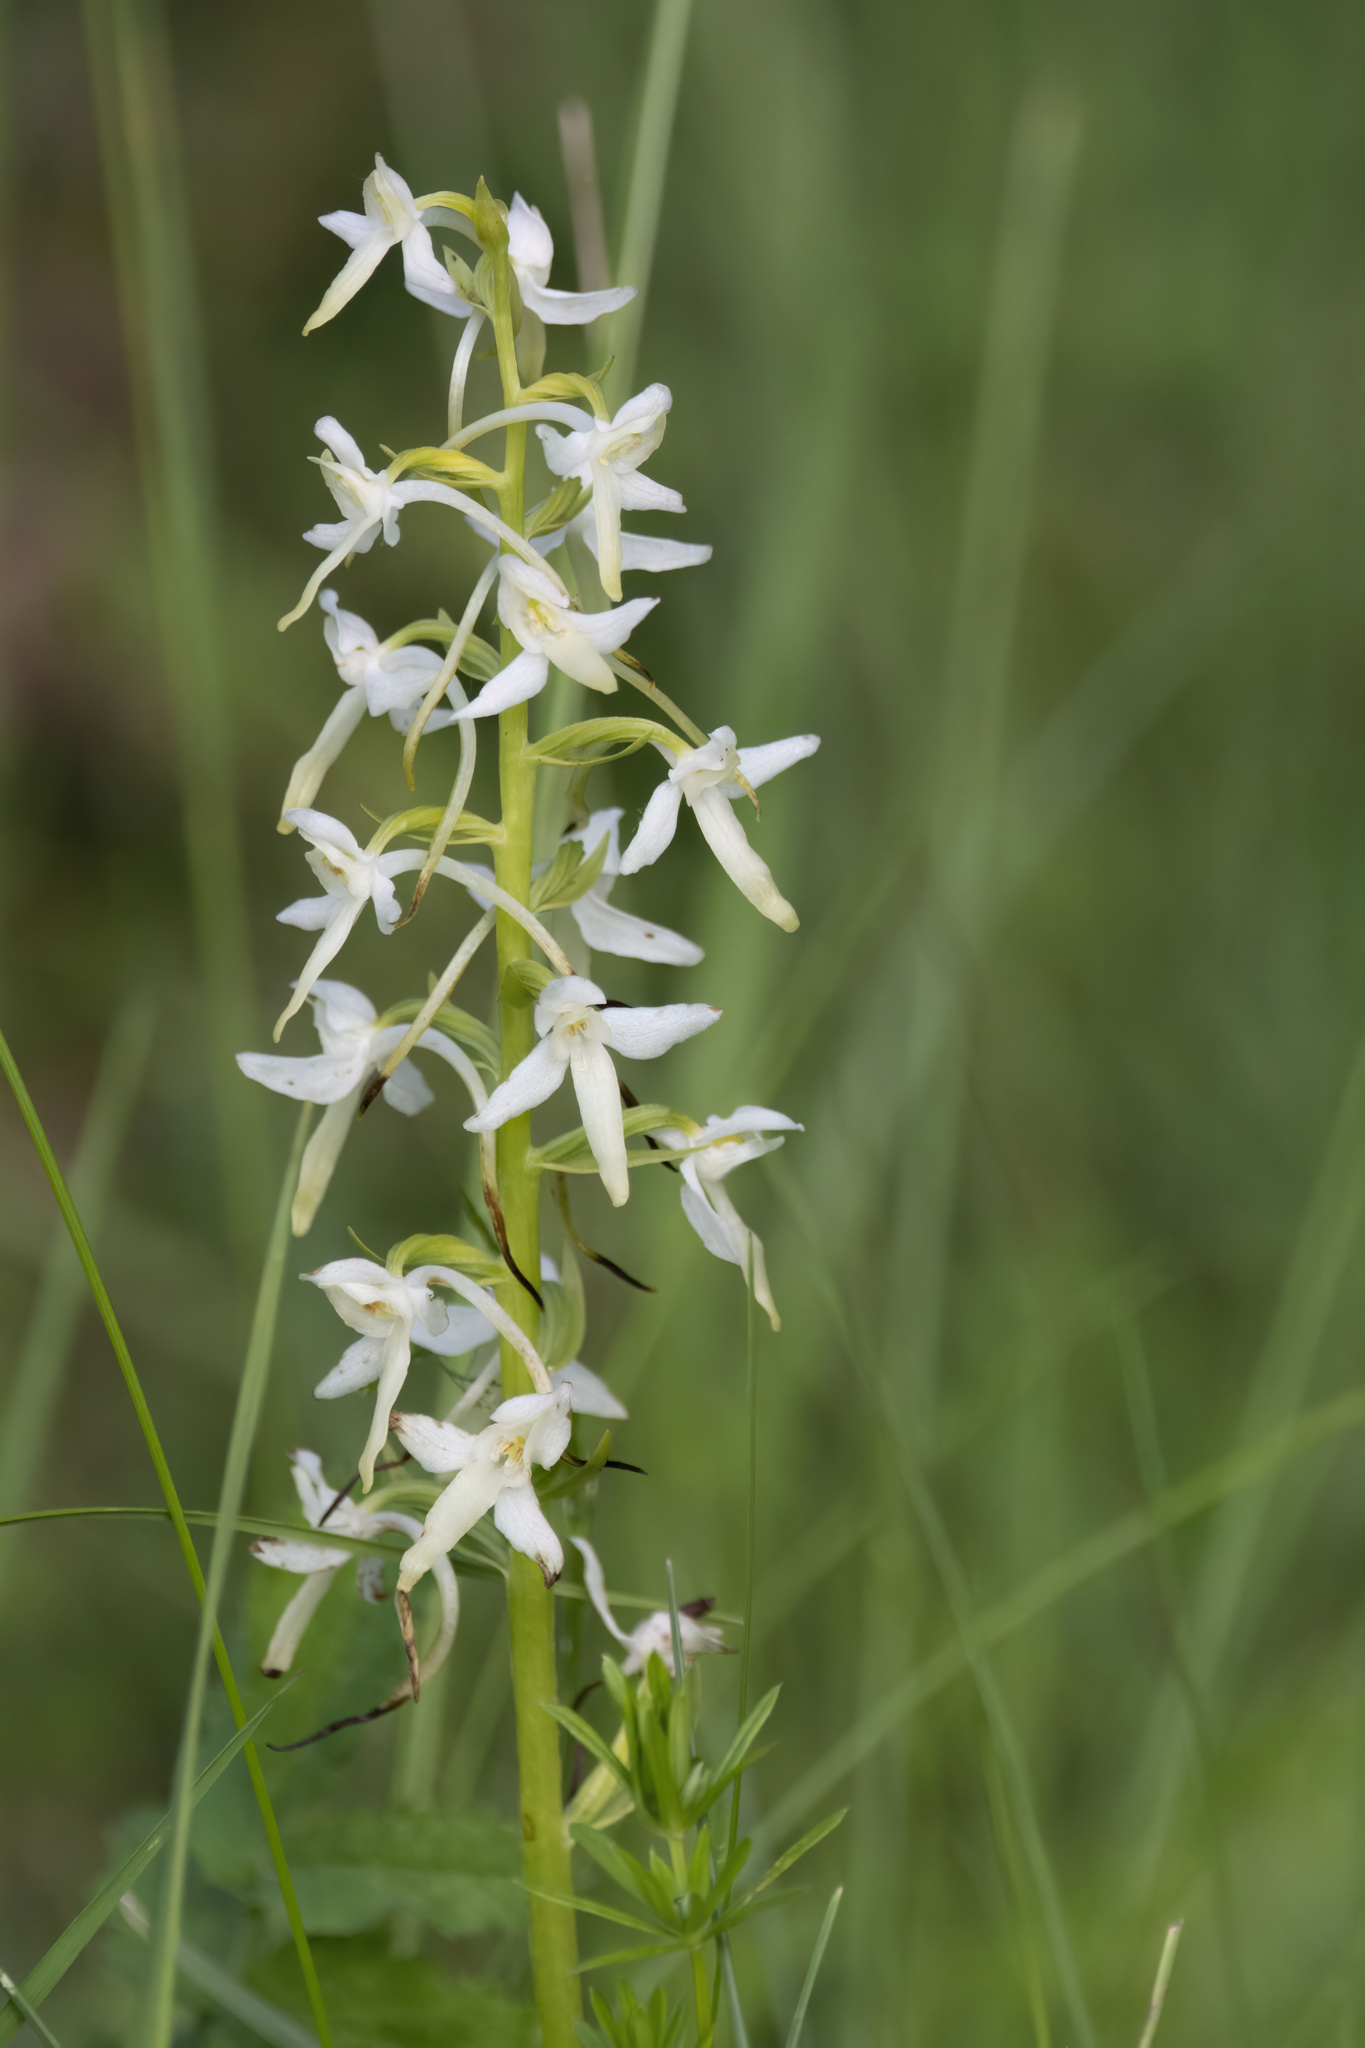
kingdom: Plantae
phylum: Tracheophyta
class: Liliopsida
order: Asparagales
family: Orchidaceae
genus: Platanthera
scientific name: Platanthera bifolia
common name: Lesser butterfly-orchid
